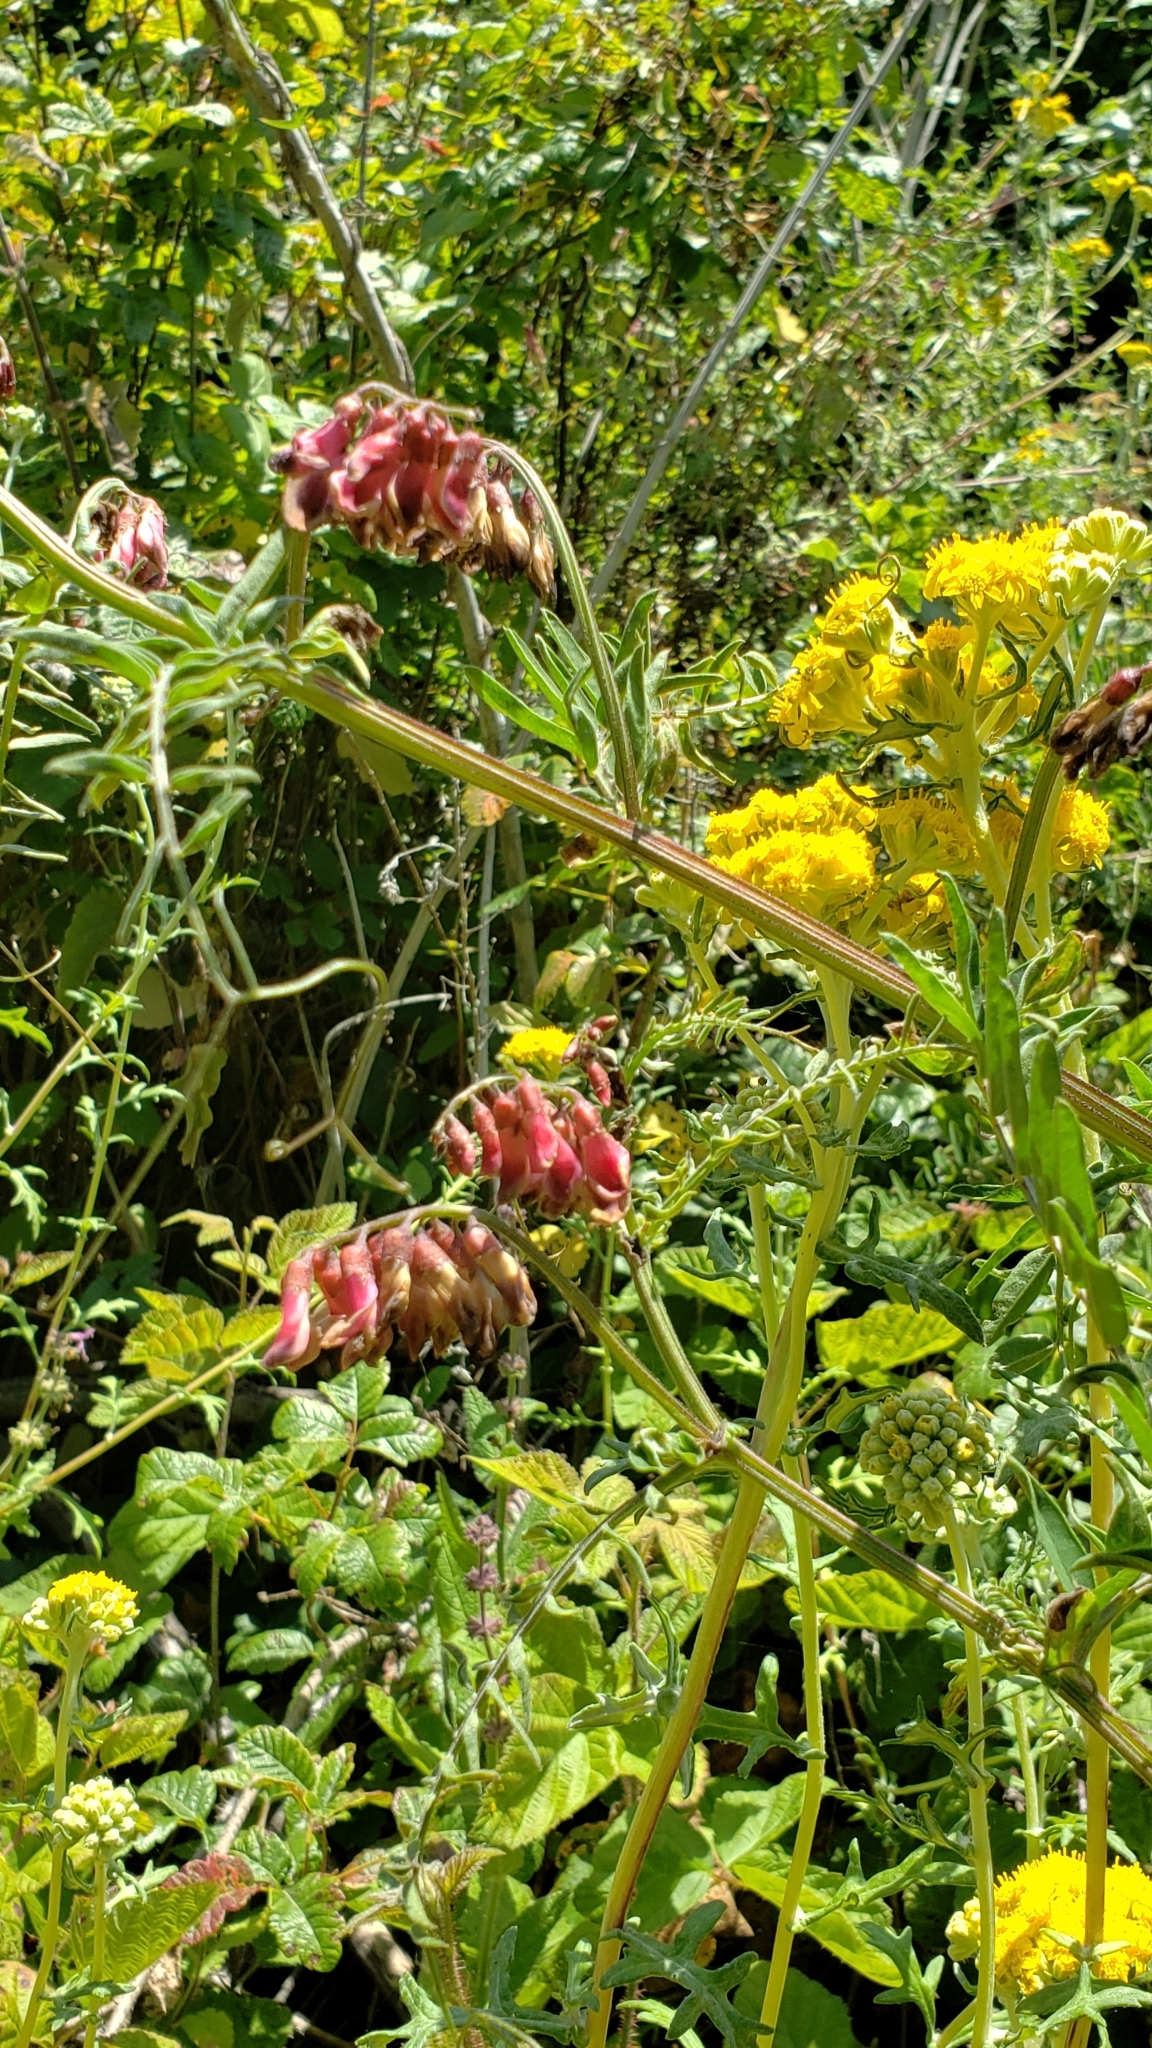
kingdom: Plantae
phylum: Tracheophyta
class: Magnoliopsida
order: Fabales
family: Fabaceae
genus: Vicia
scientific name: Vicia
